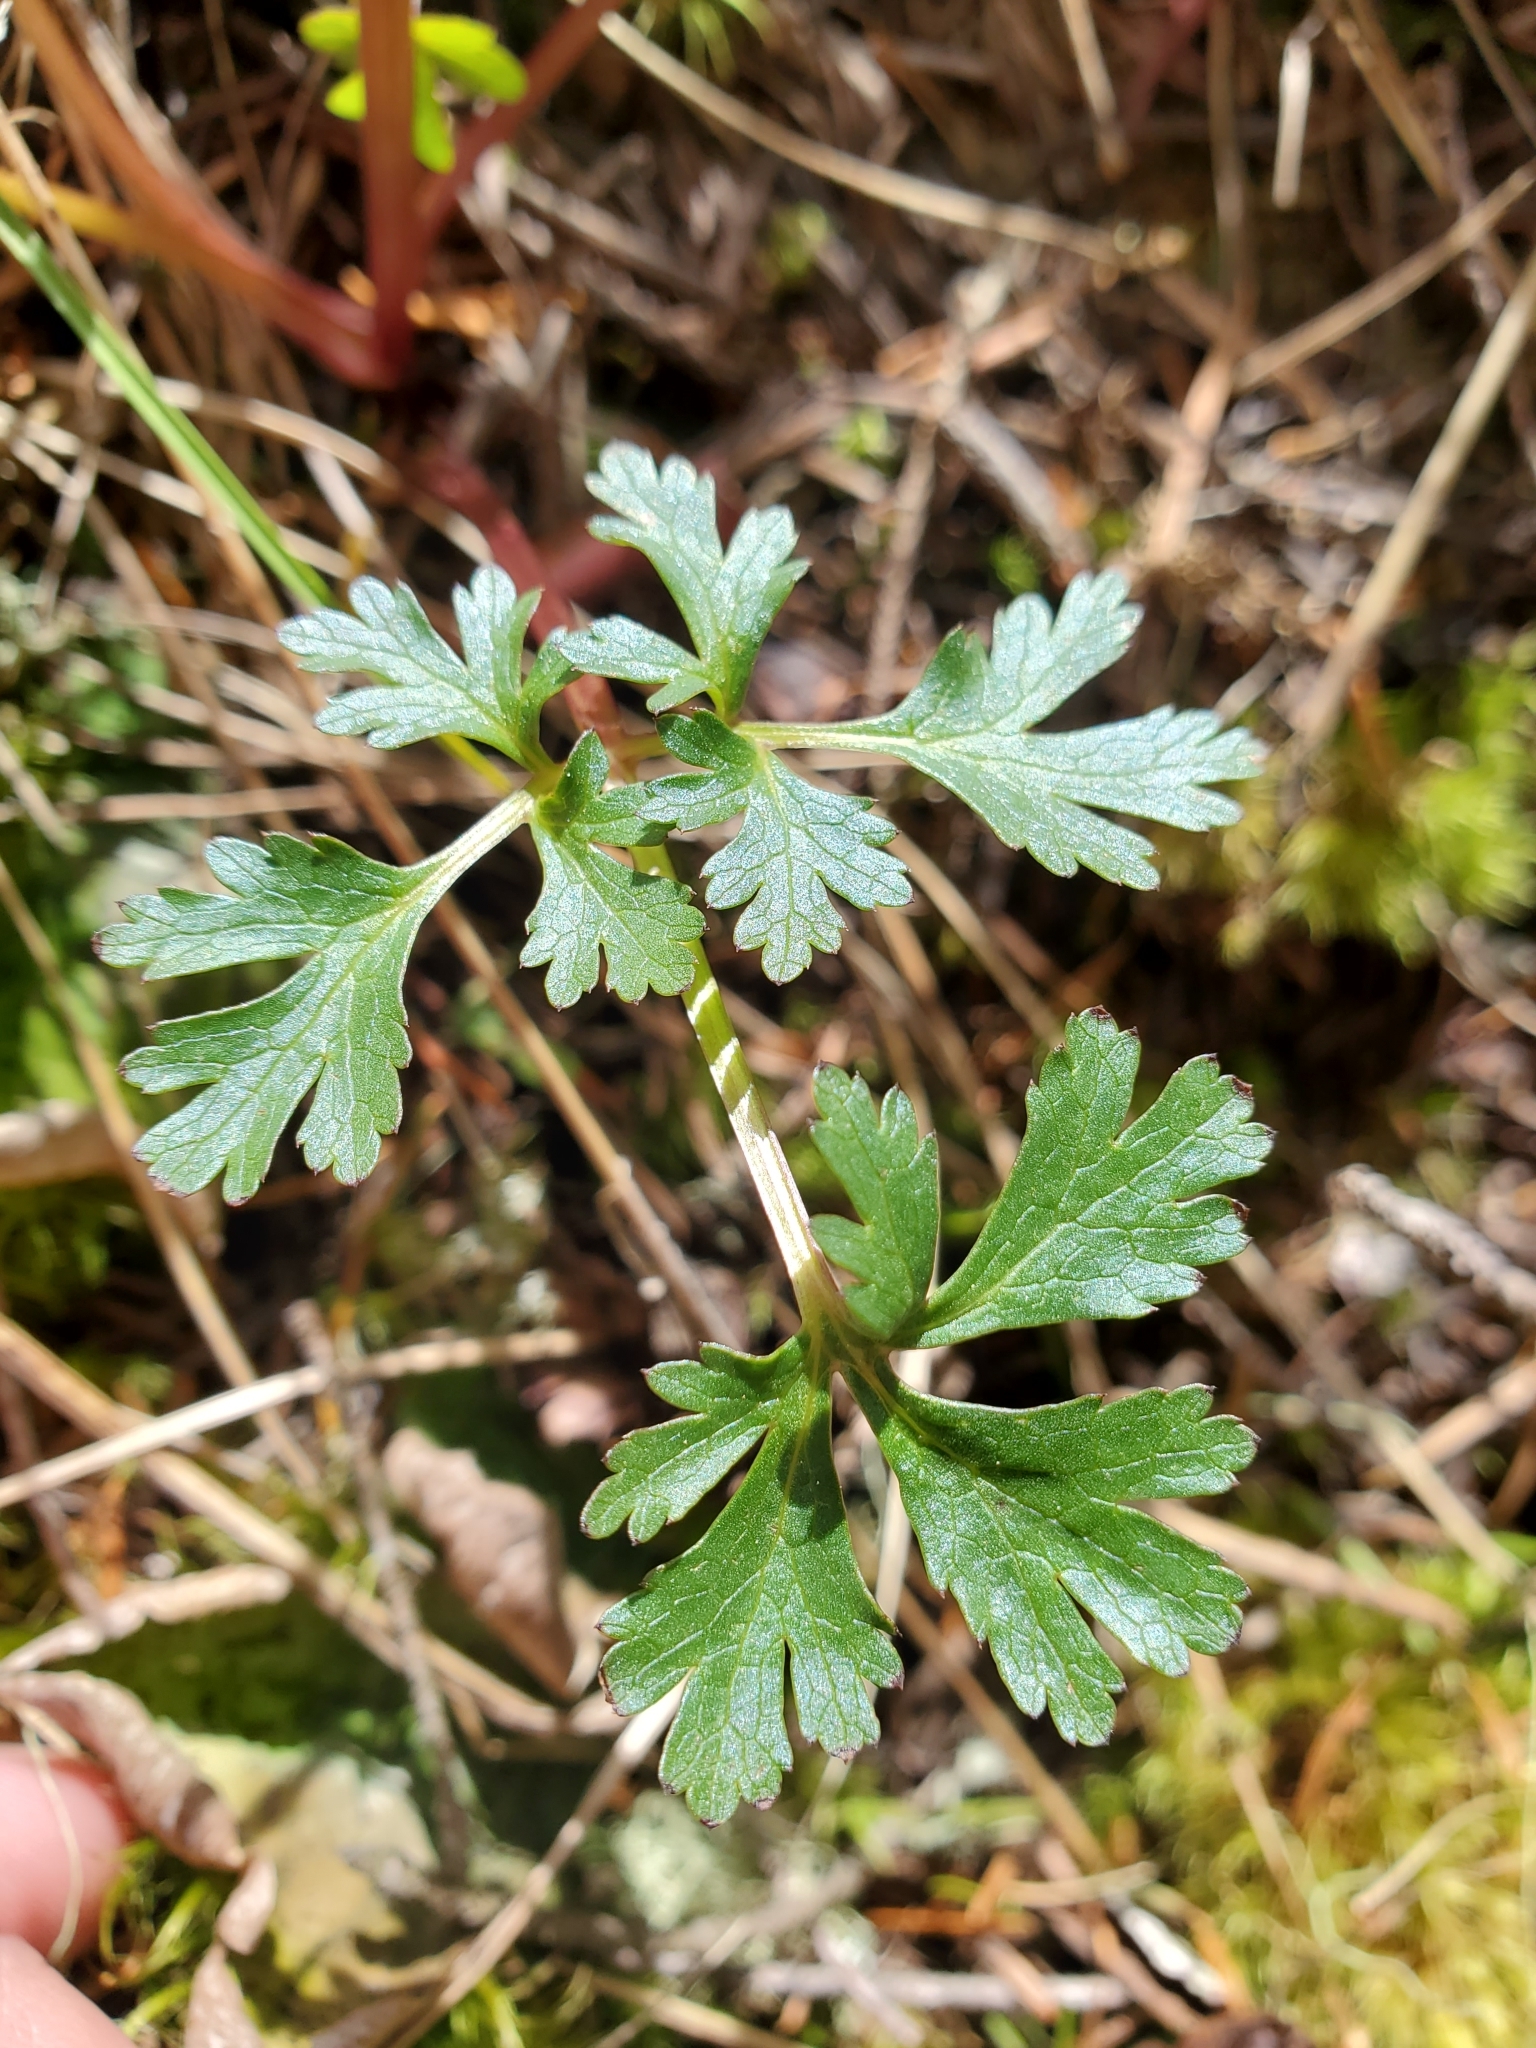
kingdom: Plantae
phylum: Tracheophyta
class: Magnoliopsida
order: Apiales
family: Apiaceae
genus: Sanicula
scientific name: Sanicula graveolens
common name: Sierra sanicle
